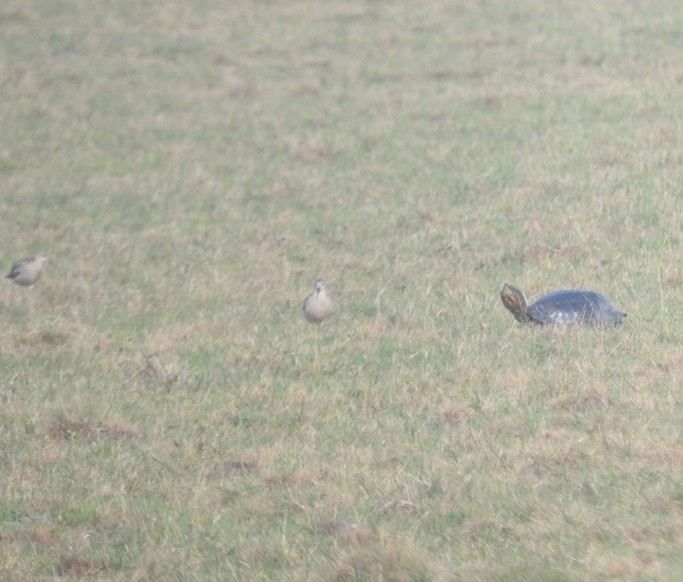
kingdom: Animalia
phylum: Chordata
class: Testudines
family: Emydidae
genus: Trachemys
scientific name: Trachemys dorbigni
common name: Black-bellied slider
